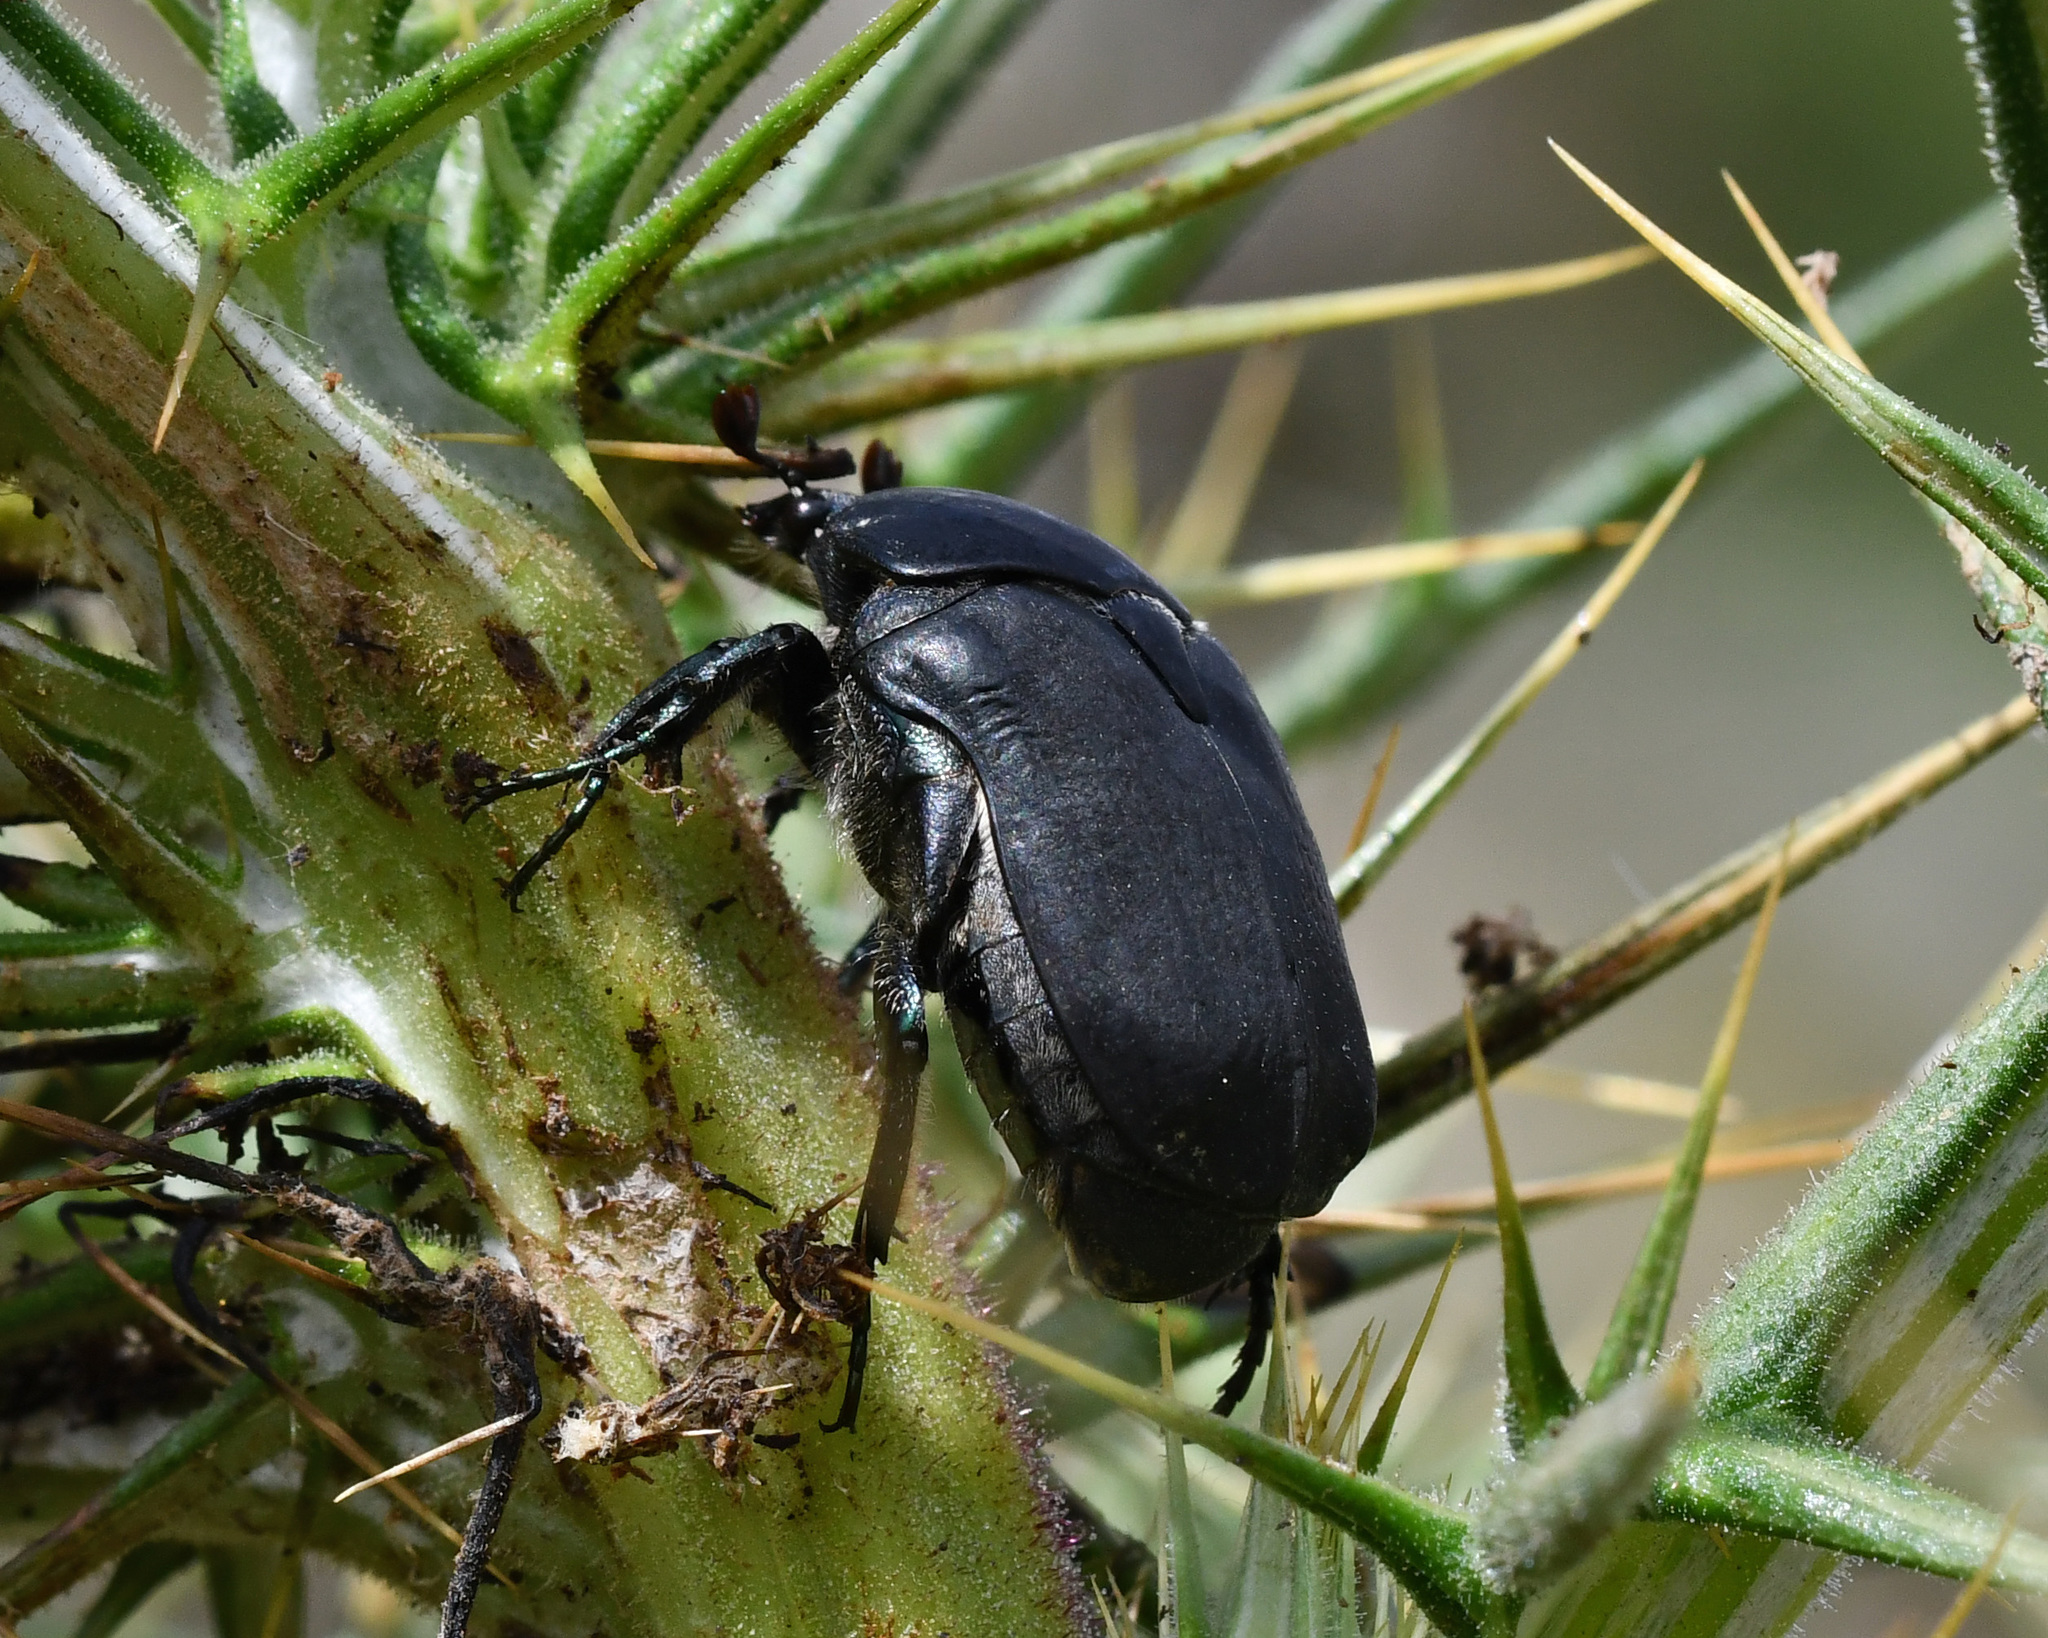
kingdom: Animalia
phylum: Arthropoda
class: Insecta
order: Coleoptera
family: Scarabaeidae
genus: Protaetia
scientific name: Protaetia afflicta
